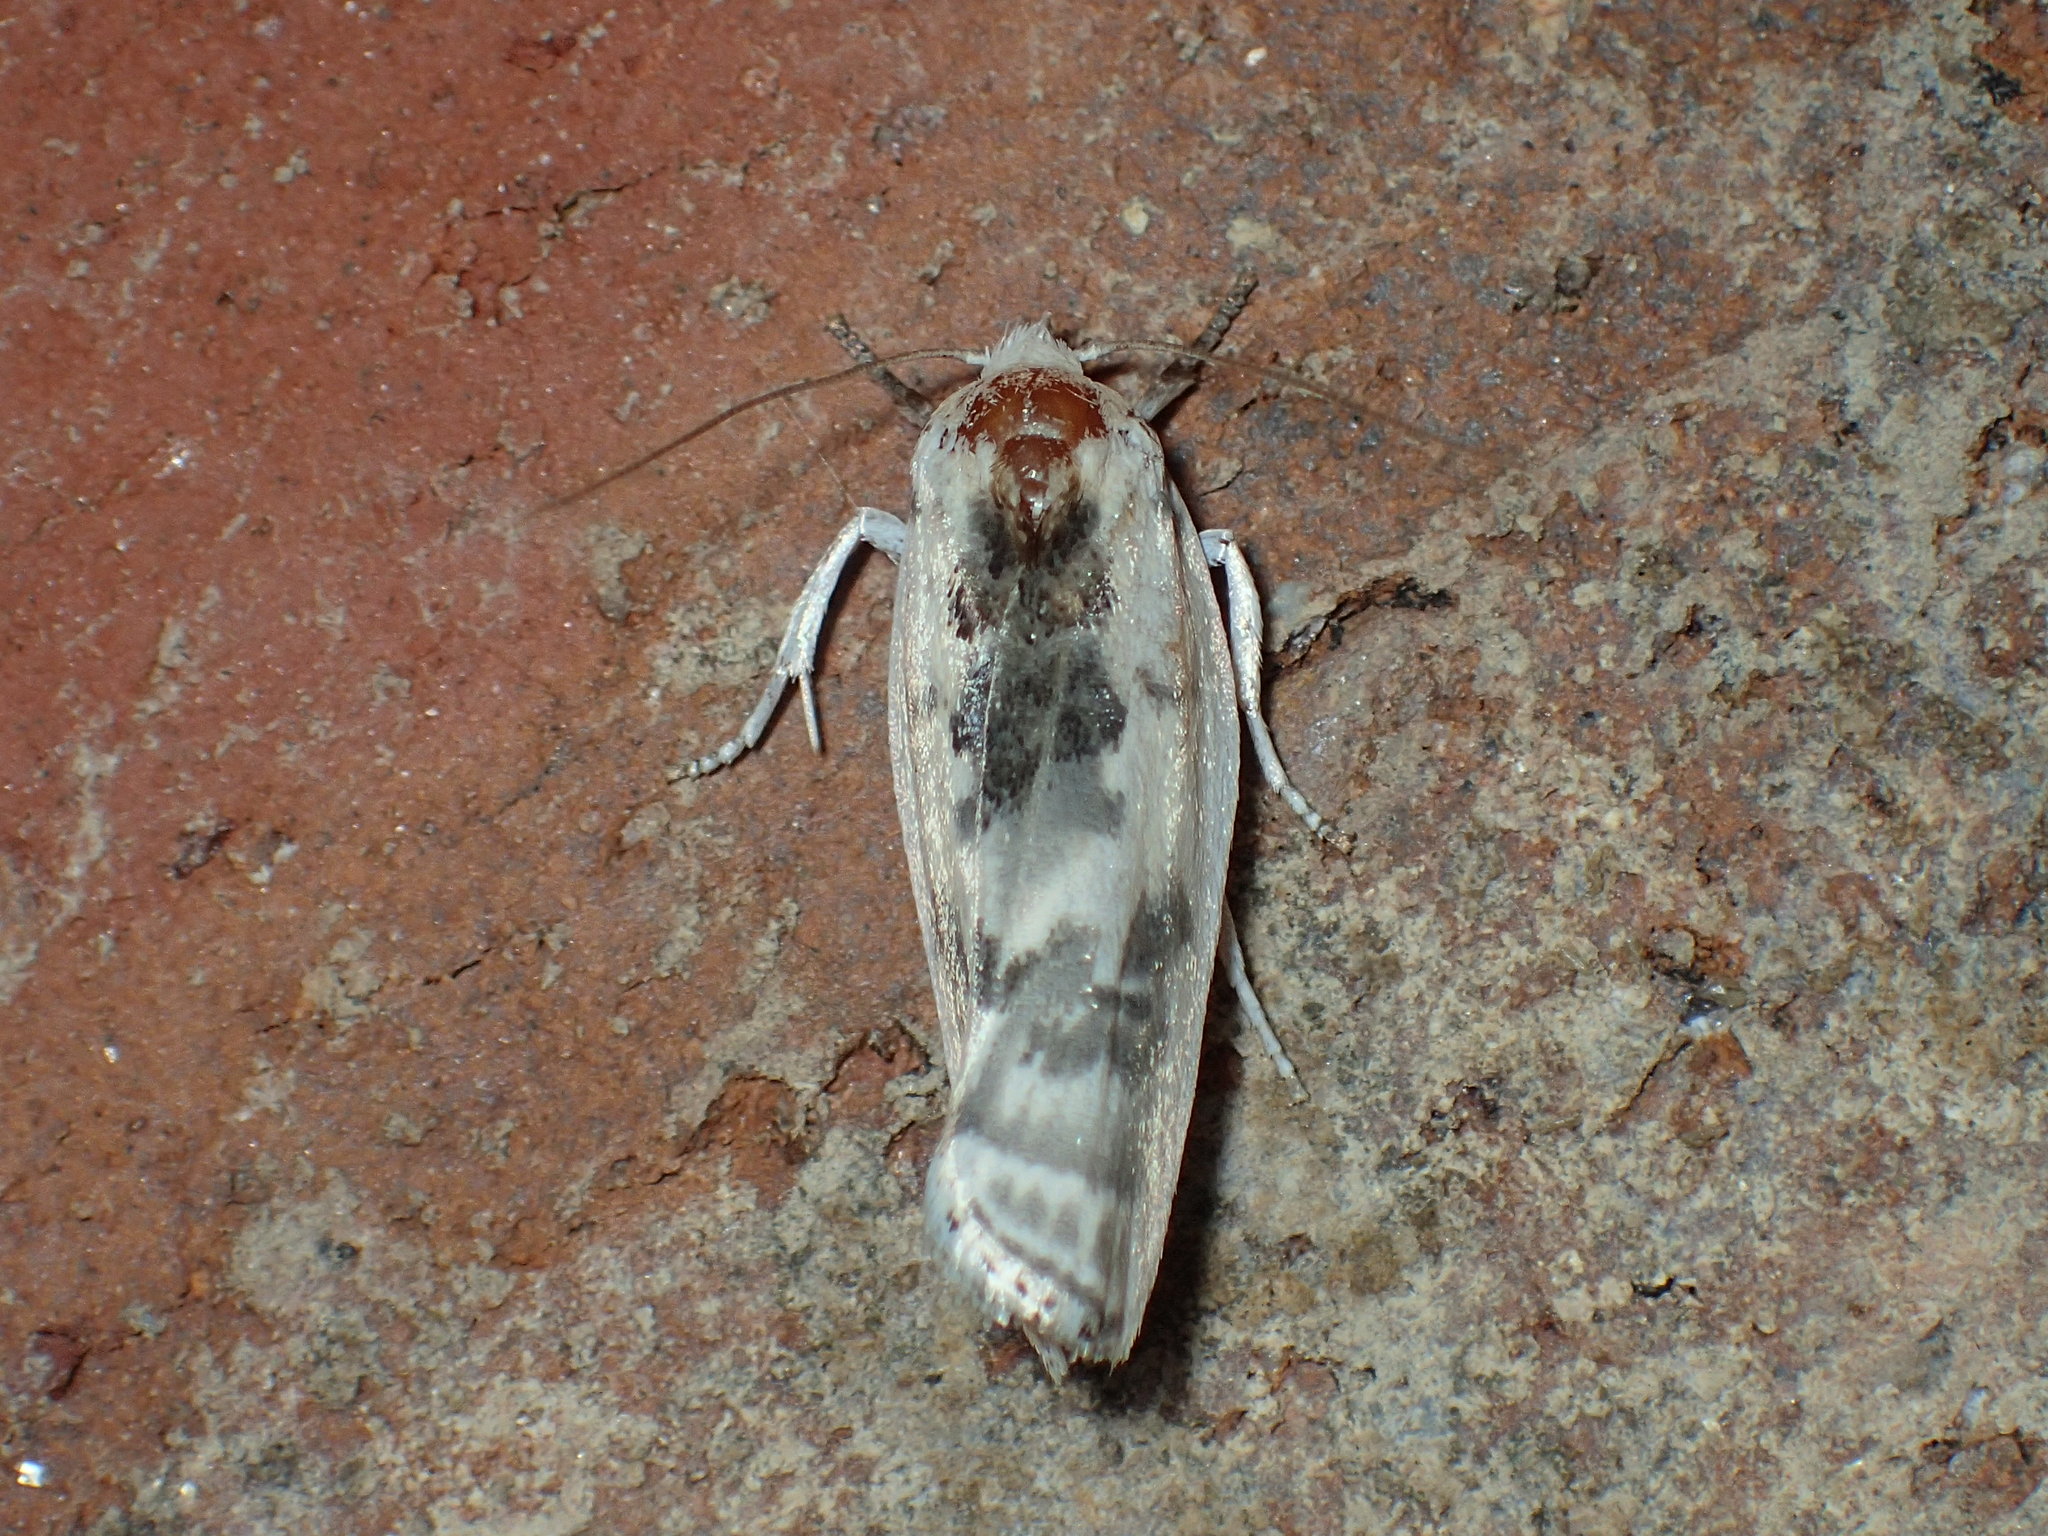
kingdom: Animalia
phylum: Arthropoda
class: Insecta
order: Lepidoptera
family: Depressariidae
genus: Antaeotricha
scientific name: Antaeotricha schlaegeri
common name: Schlaeger's fruitworm moth
